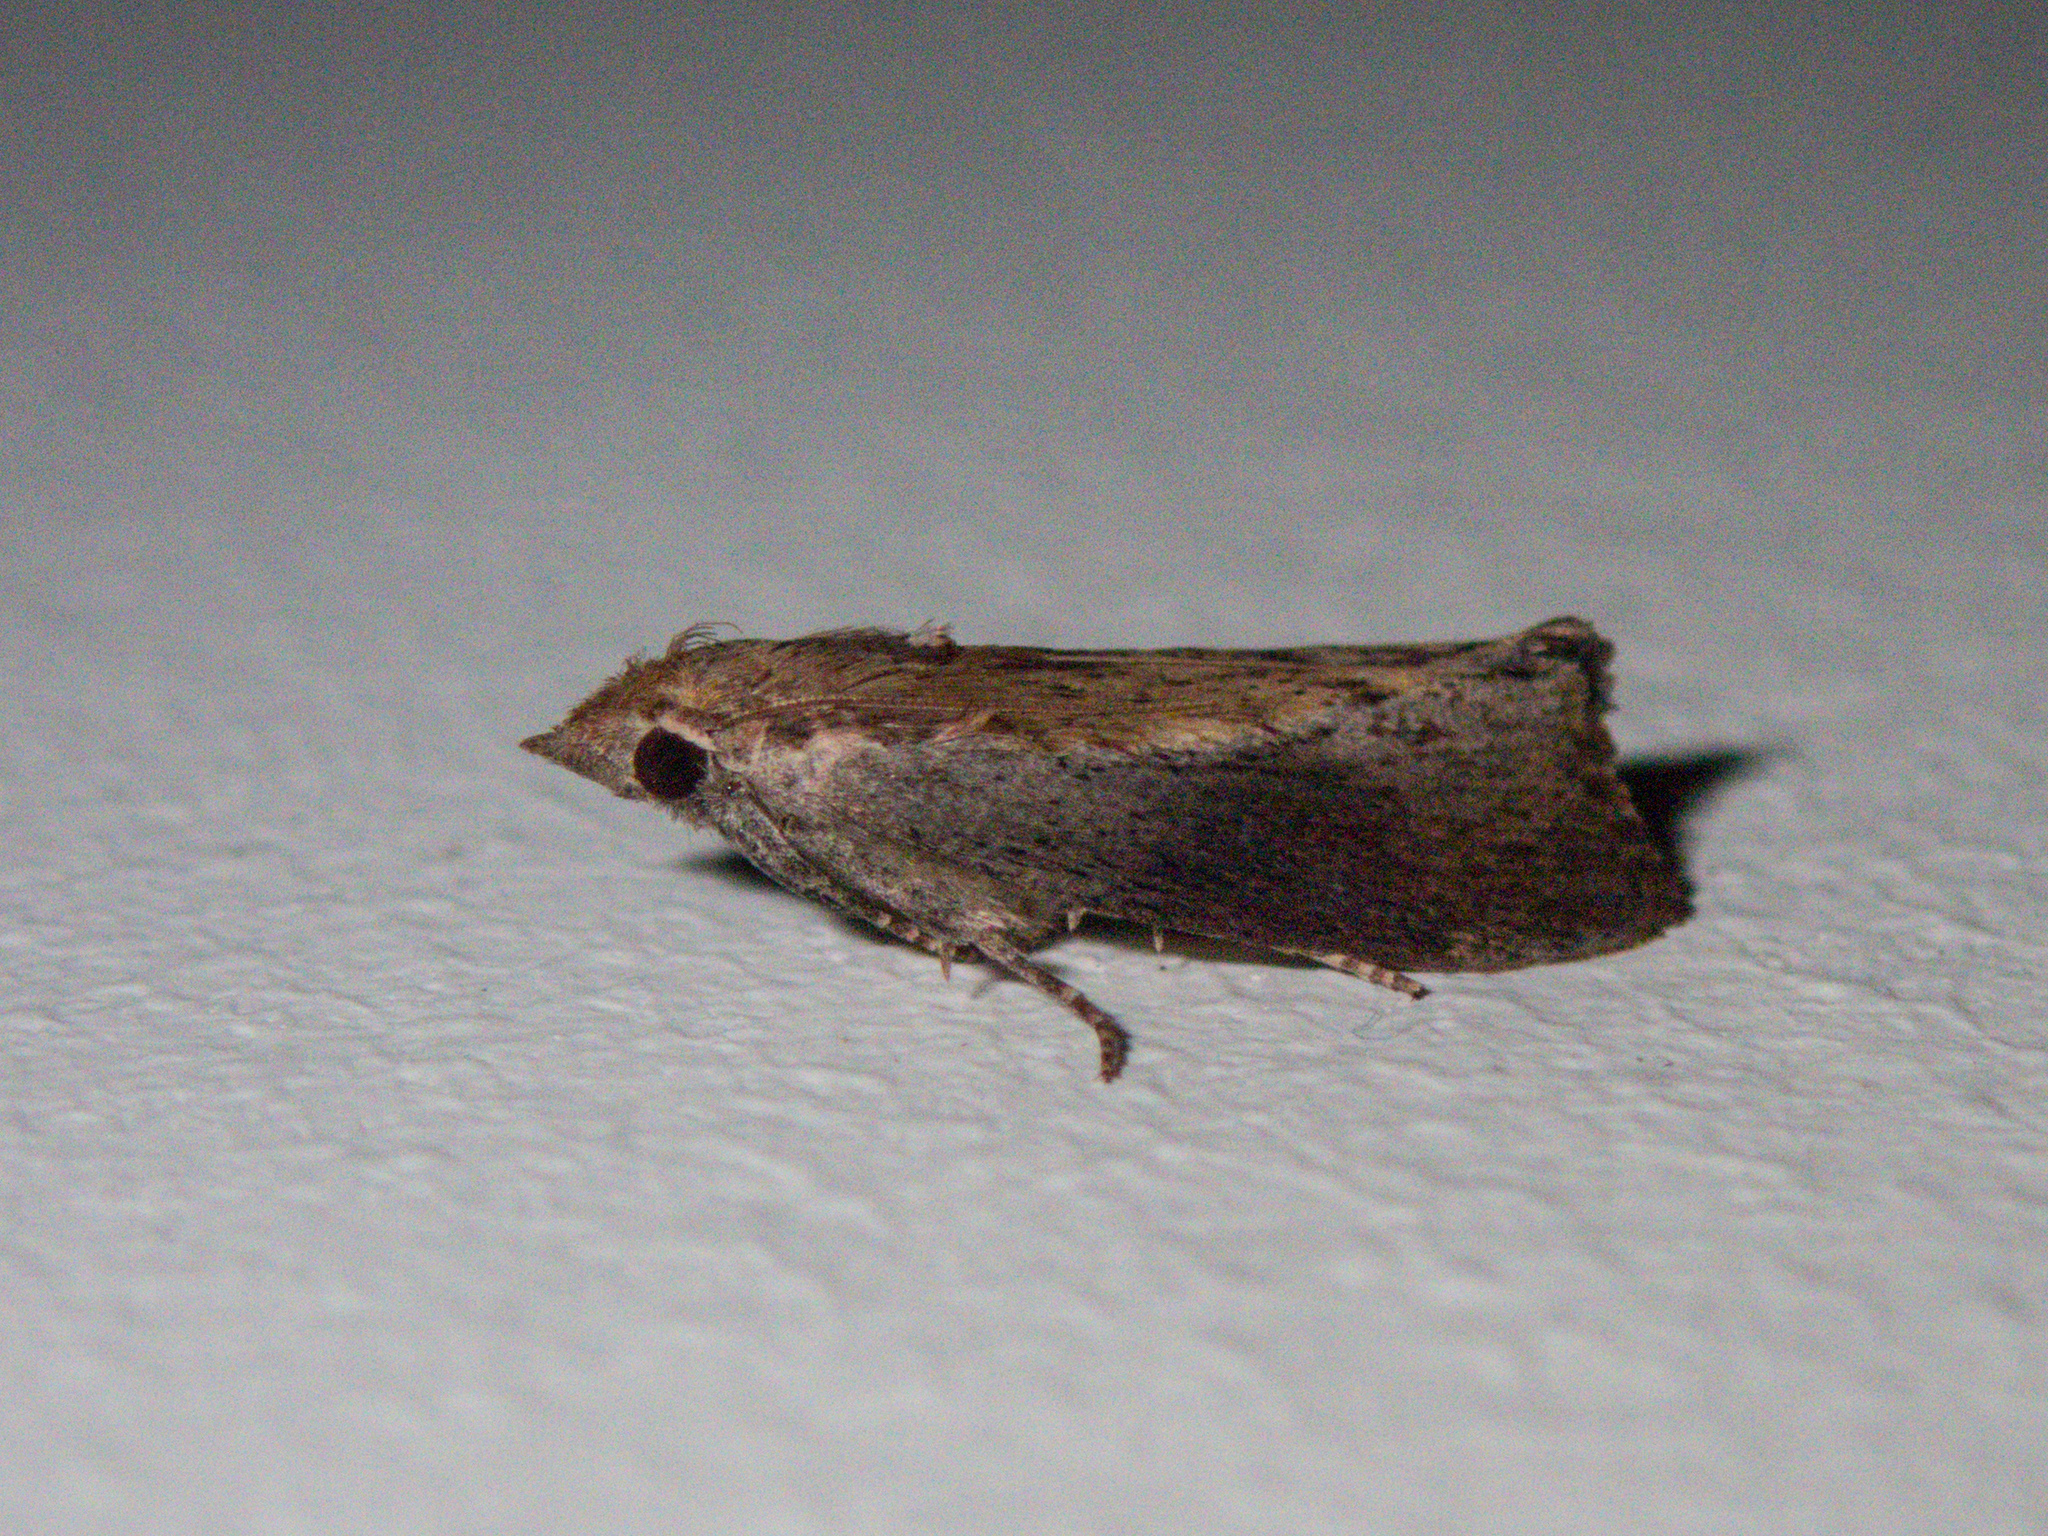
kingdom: Animalia
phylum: Arthropoda
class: Insecta
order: Lepidoptera
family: Pyralidae
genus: Galleria
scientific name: Galleria mellonella
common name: Greater wax moth
